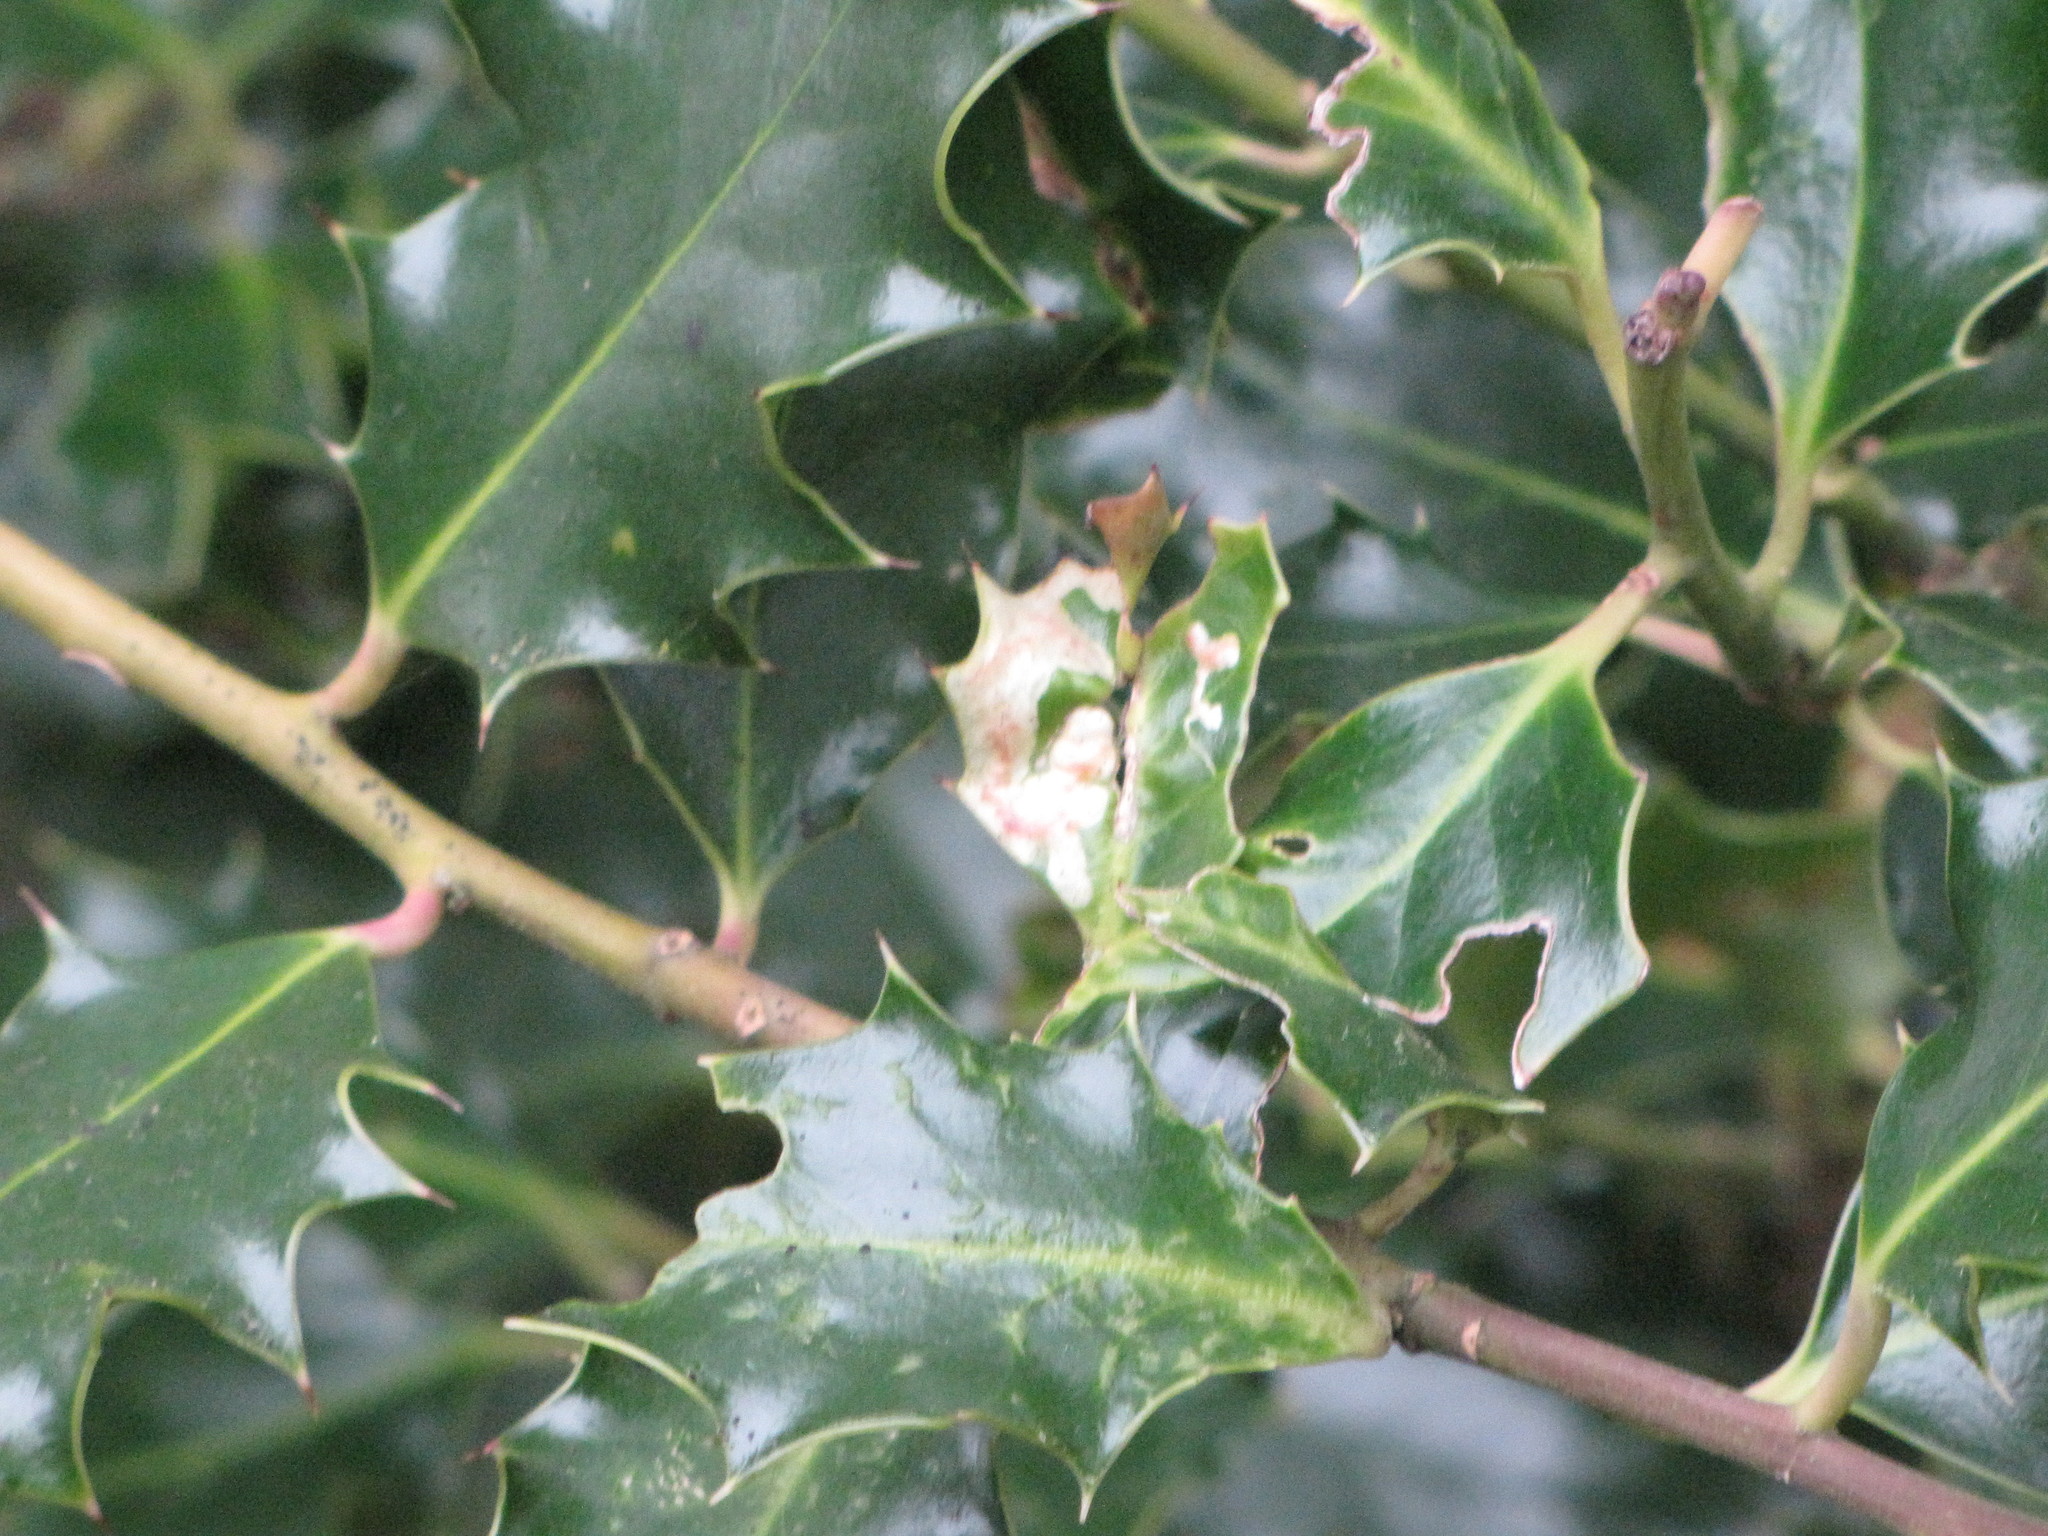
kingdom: Animalia
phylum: Arthropoda
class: Insecta
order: Diptera
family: Agromyzidae
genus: Phytomyza
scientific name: Phytomyza ilicis
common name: Holly leafminer
